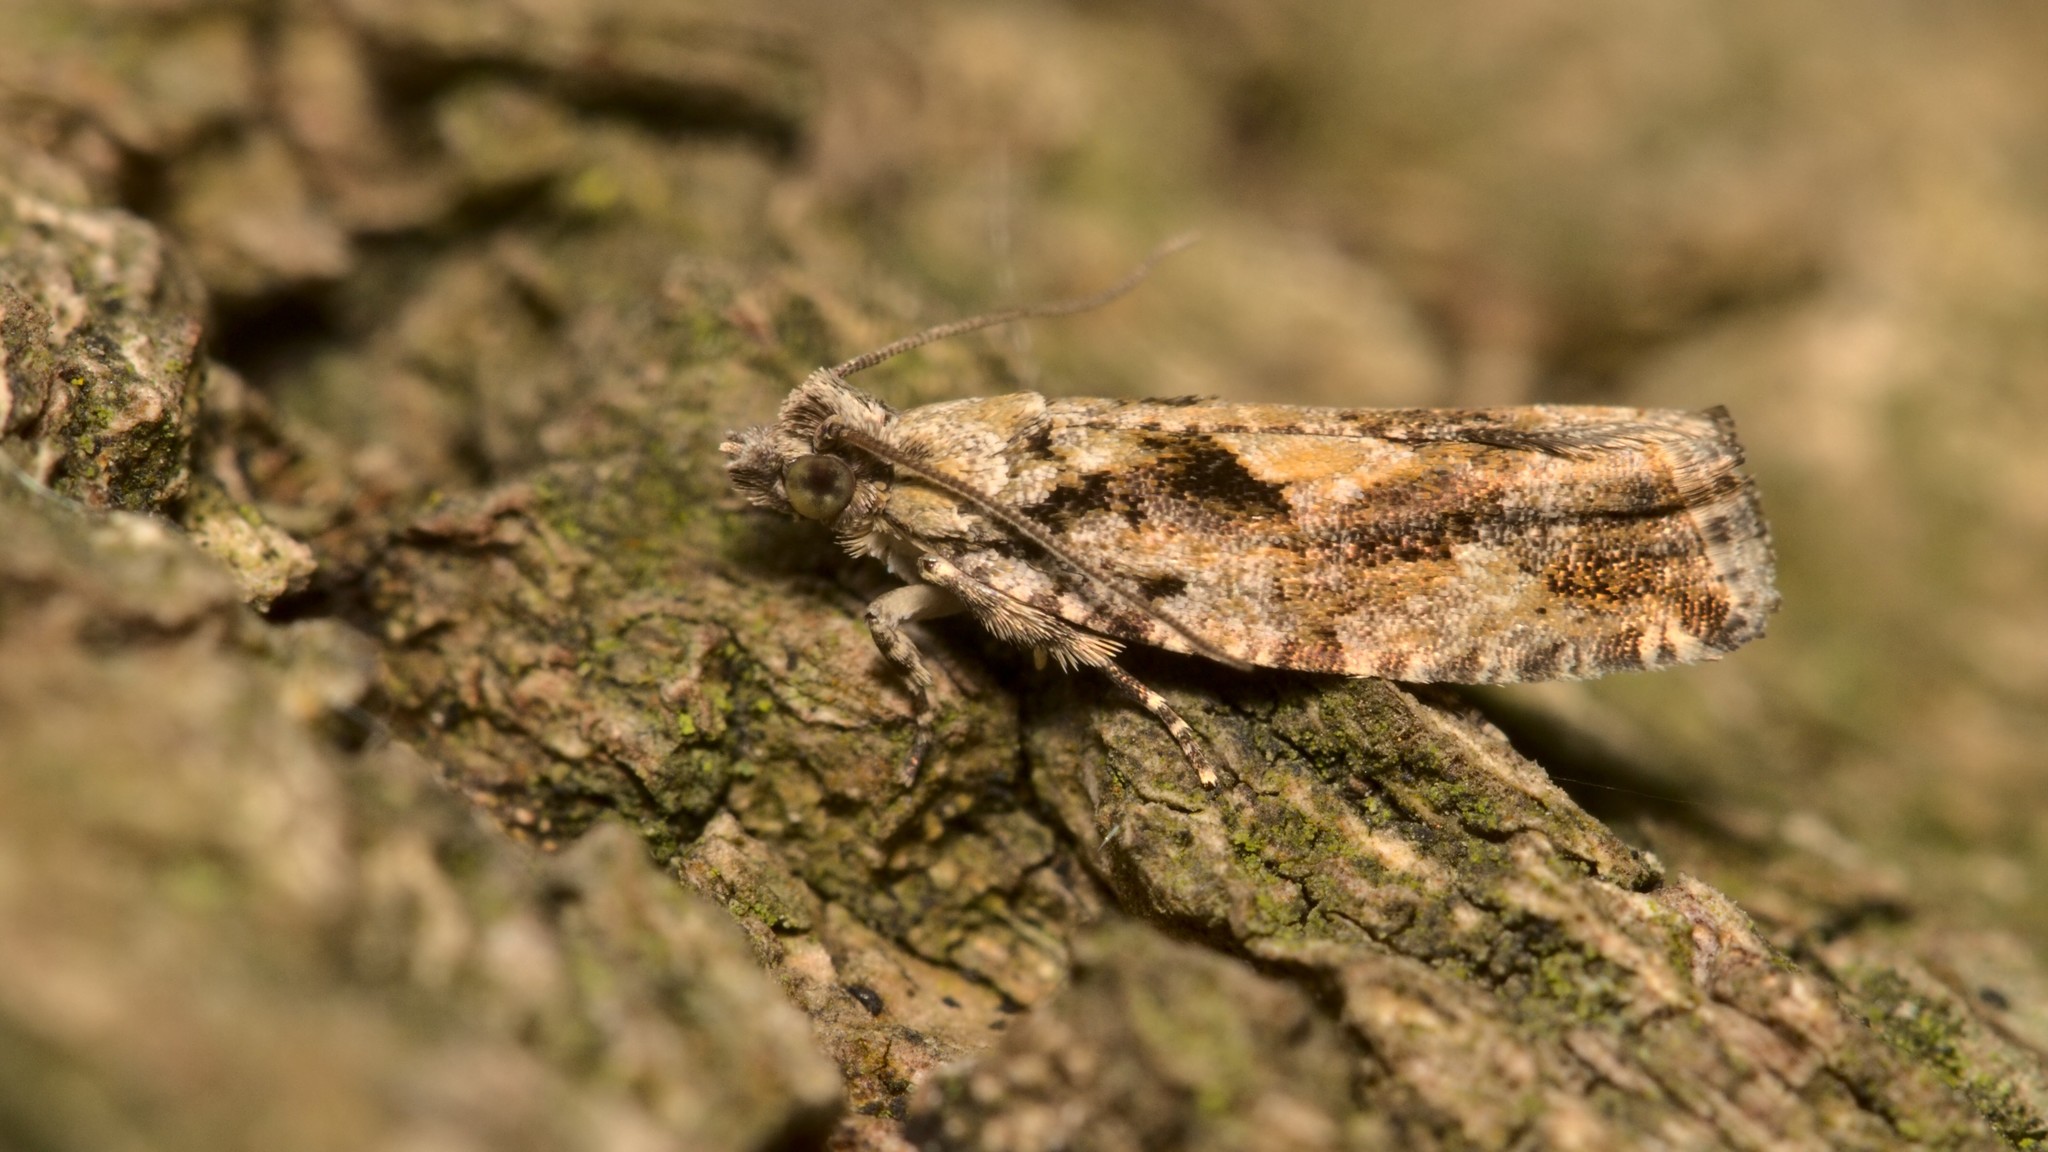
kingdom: Animalia
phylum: Arthropoda
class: Insecta
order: Lepidoptera
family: Tortricidae
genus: Zeiraphera
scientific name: Zeiraphera isertana
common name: Cock's-head bell
